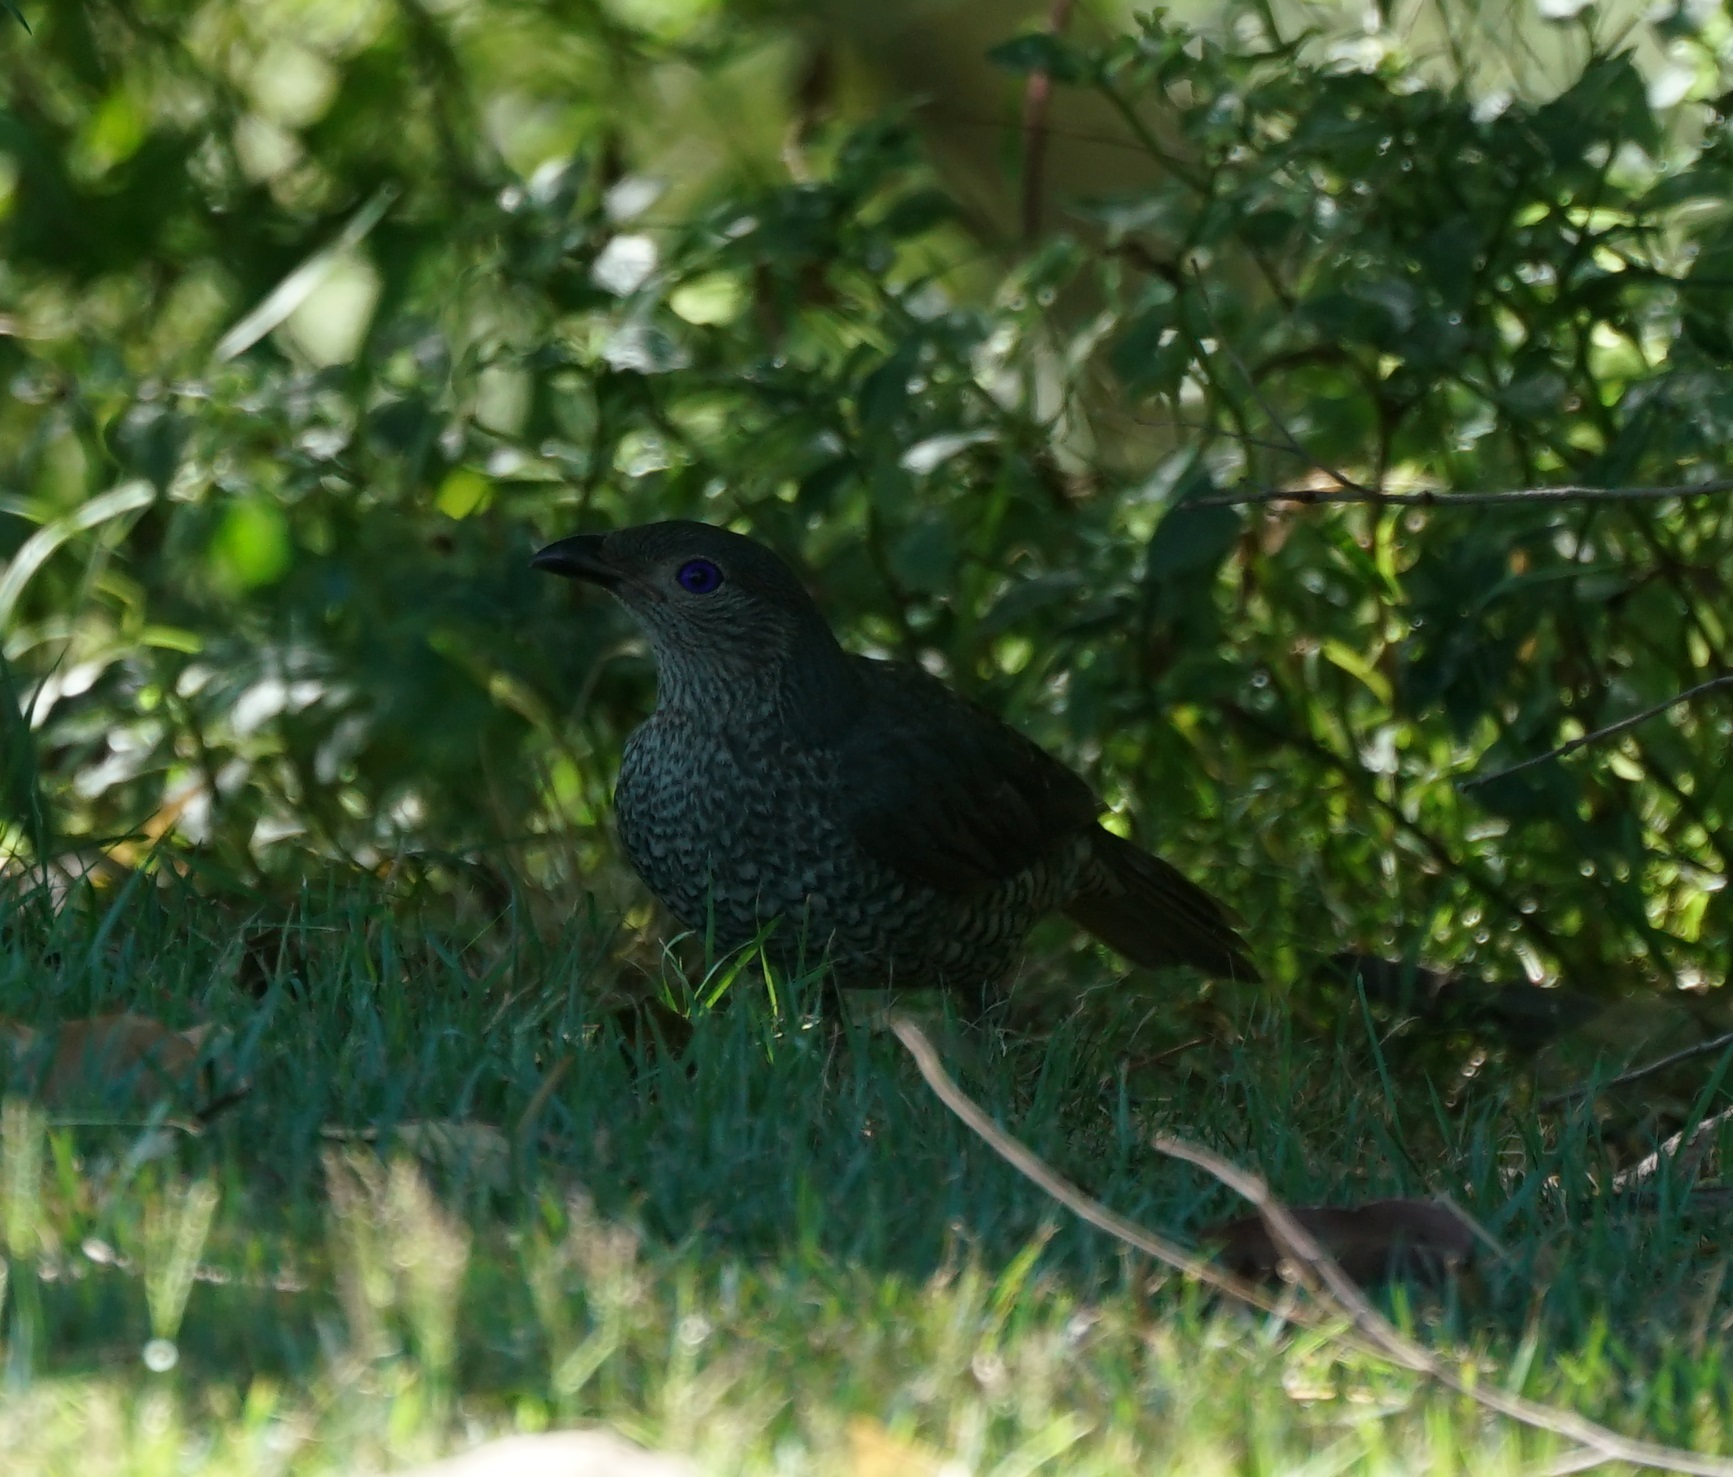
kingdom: Animalia
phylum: Chordata
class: Aves
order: Passeriformes
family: Ptilonorhynchidae
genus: Ptilonorhynchus
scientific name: Ptilonorhynchus violaceus
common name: Satin bowerbird
